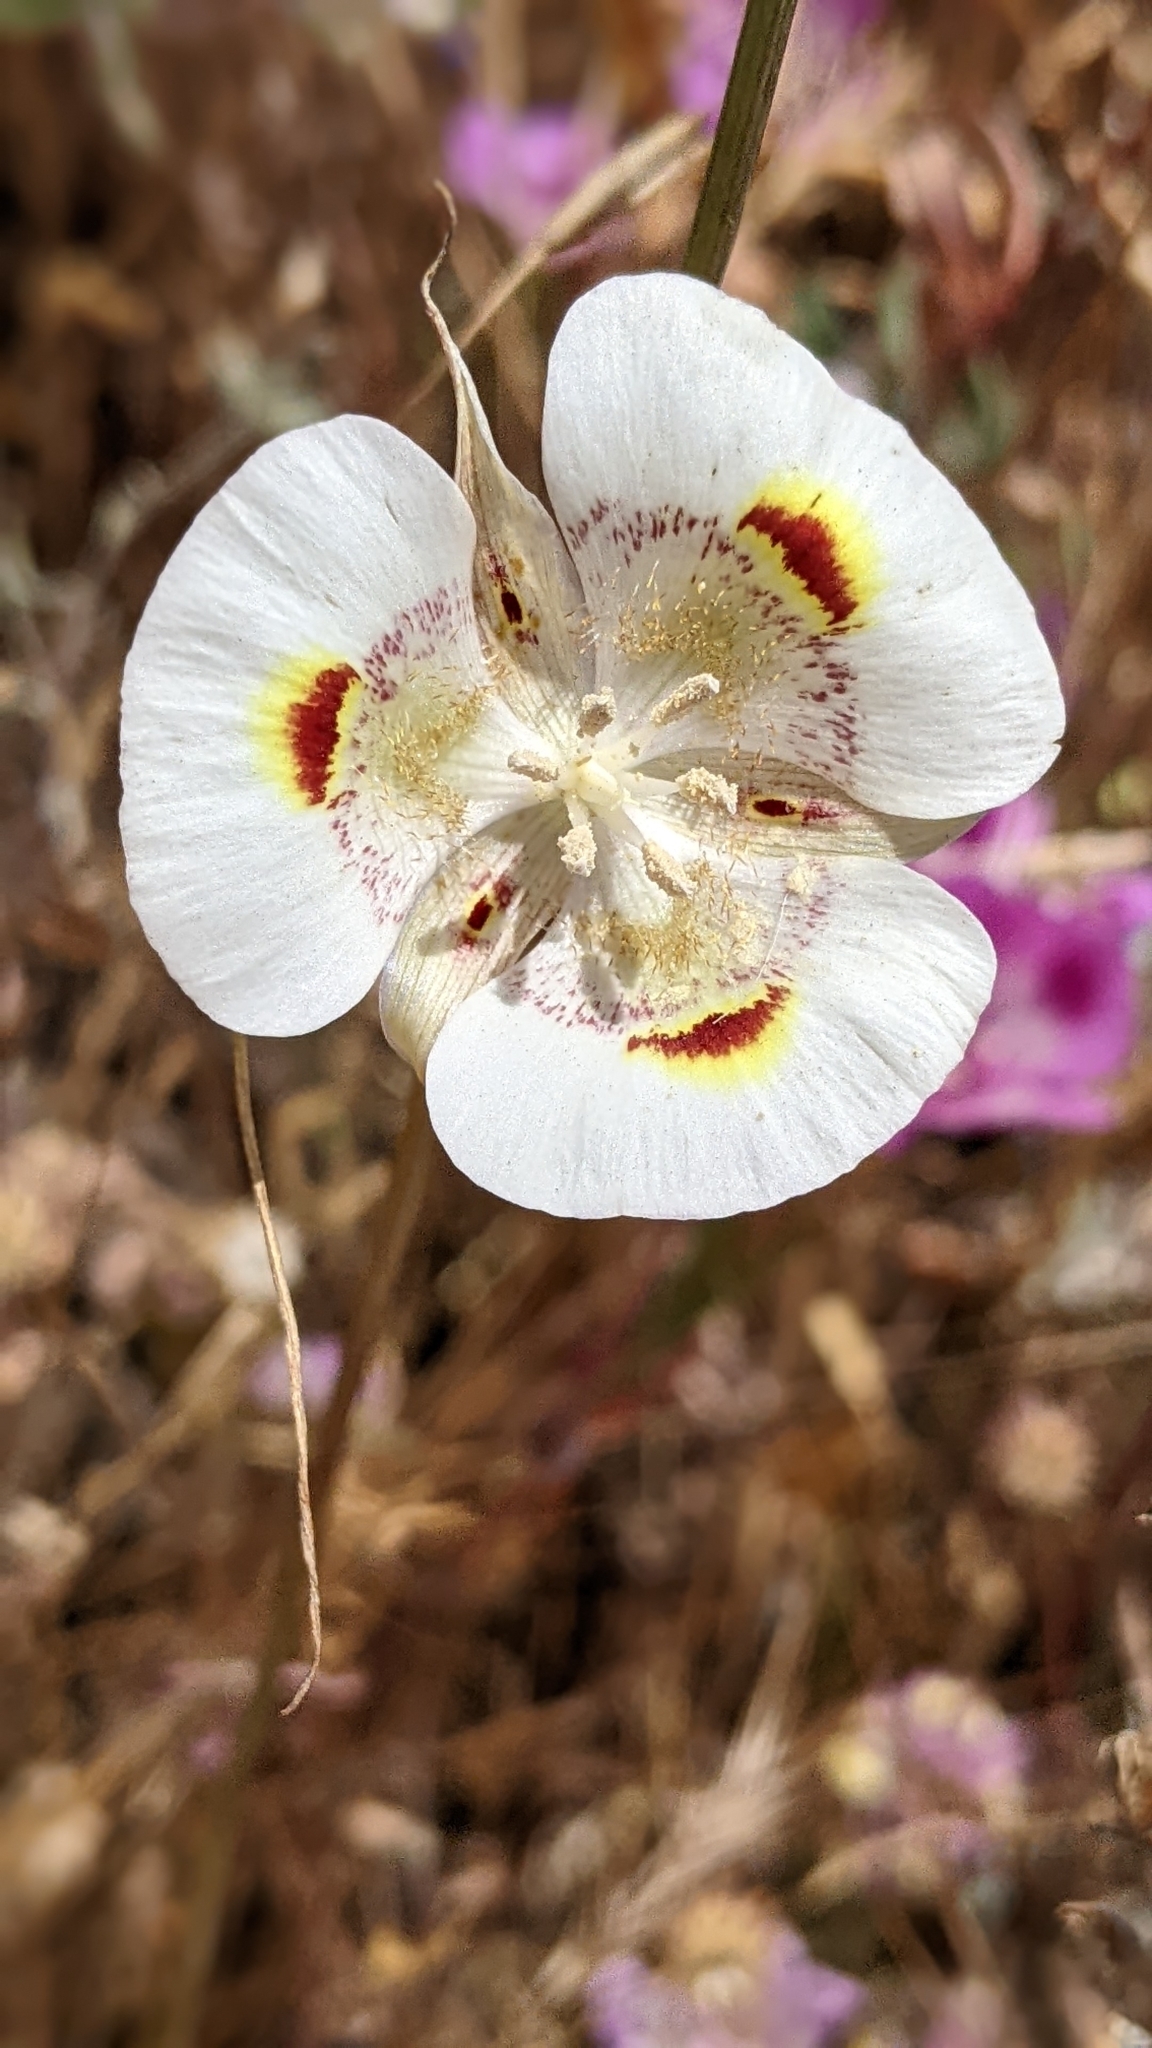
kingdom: Plantae
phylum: Tracheophyta
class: Liliopsida
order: Liliales
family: Liliaceae
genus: Calochortus
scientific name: Calochortus superbus
